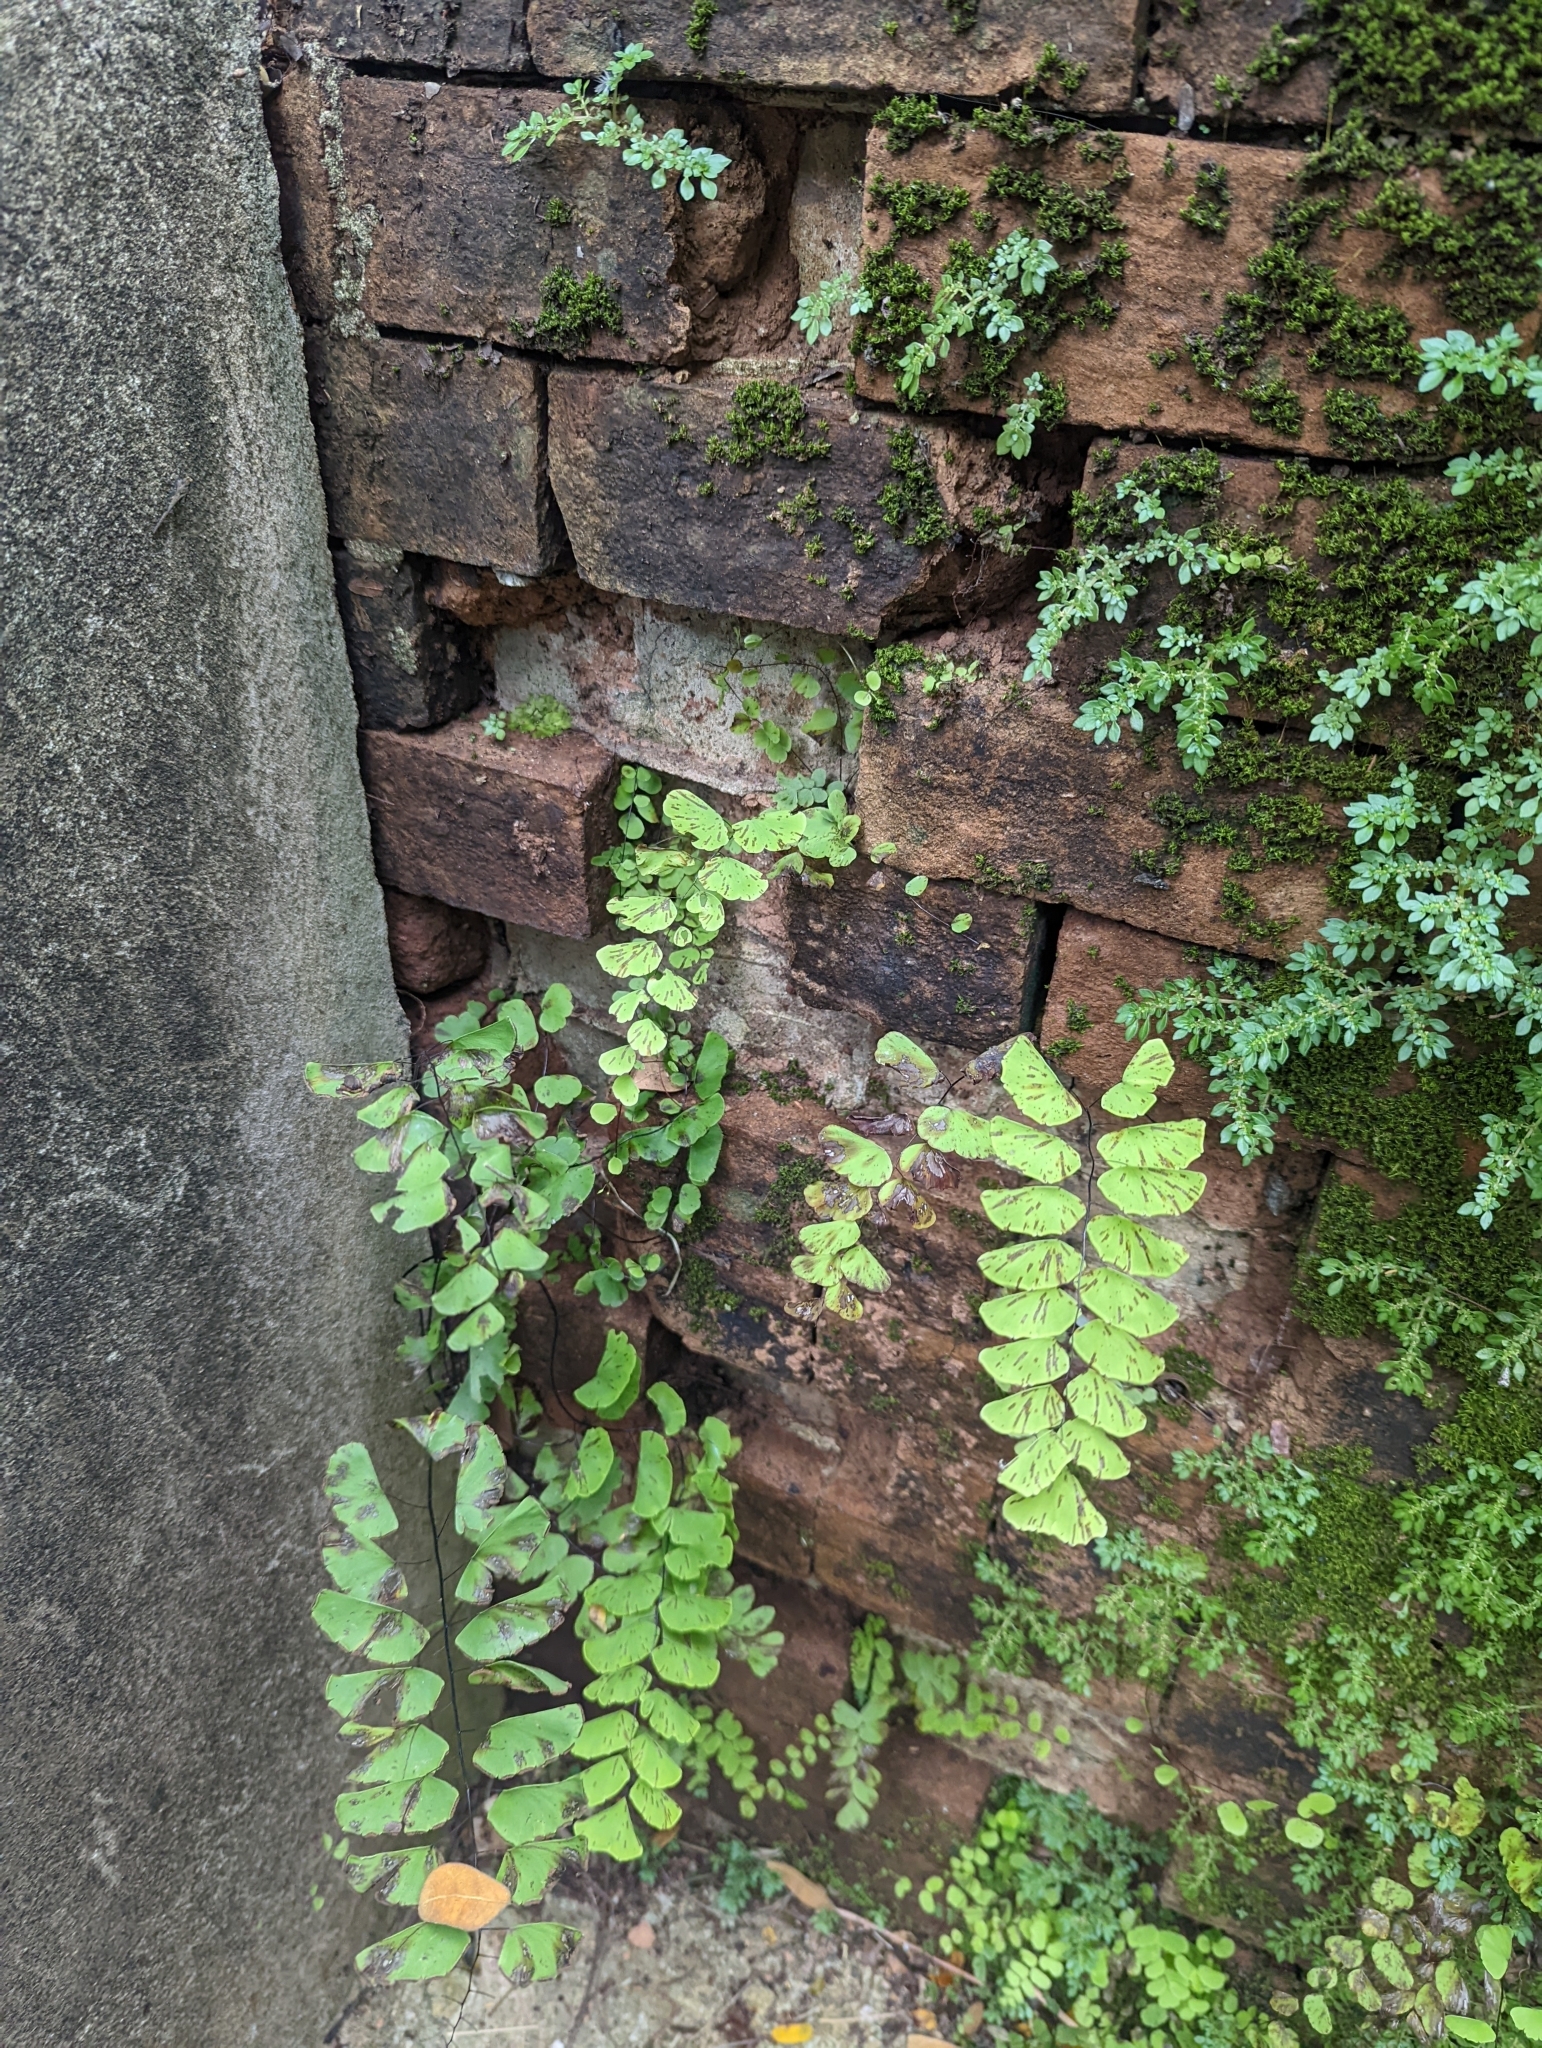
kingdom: Plantae
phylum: Tracheophyta
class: Polypodiopsida
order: Polypodiales
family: Pteridaceae
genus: Adiantum
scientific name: Adiantum philippense
